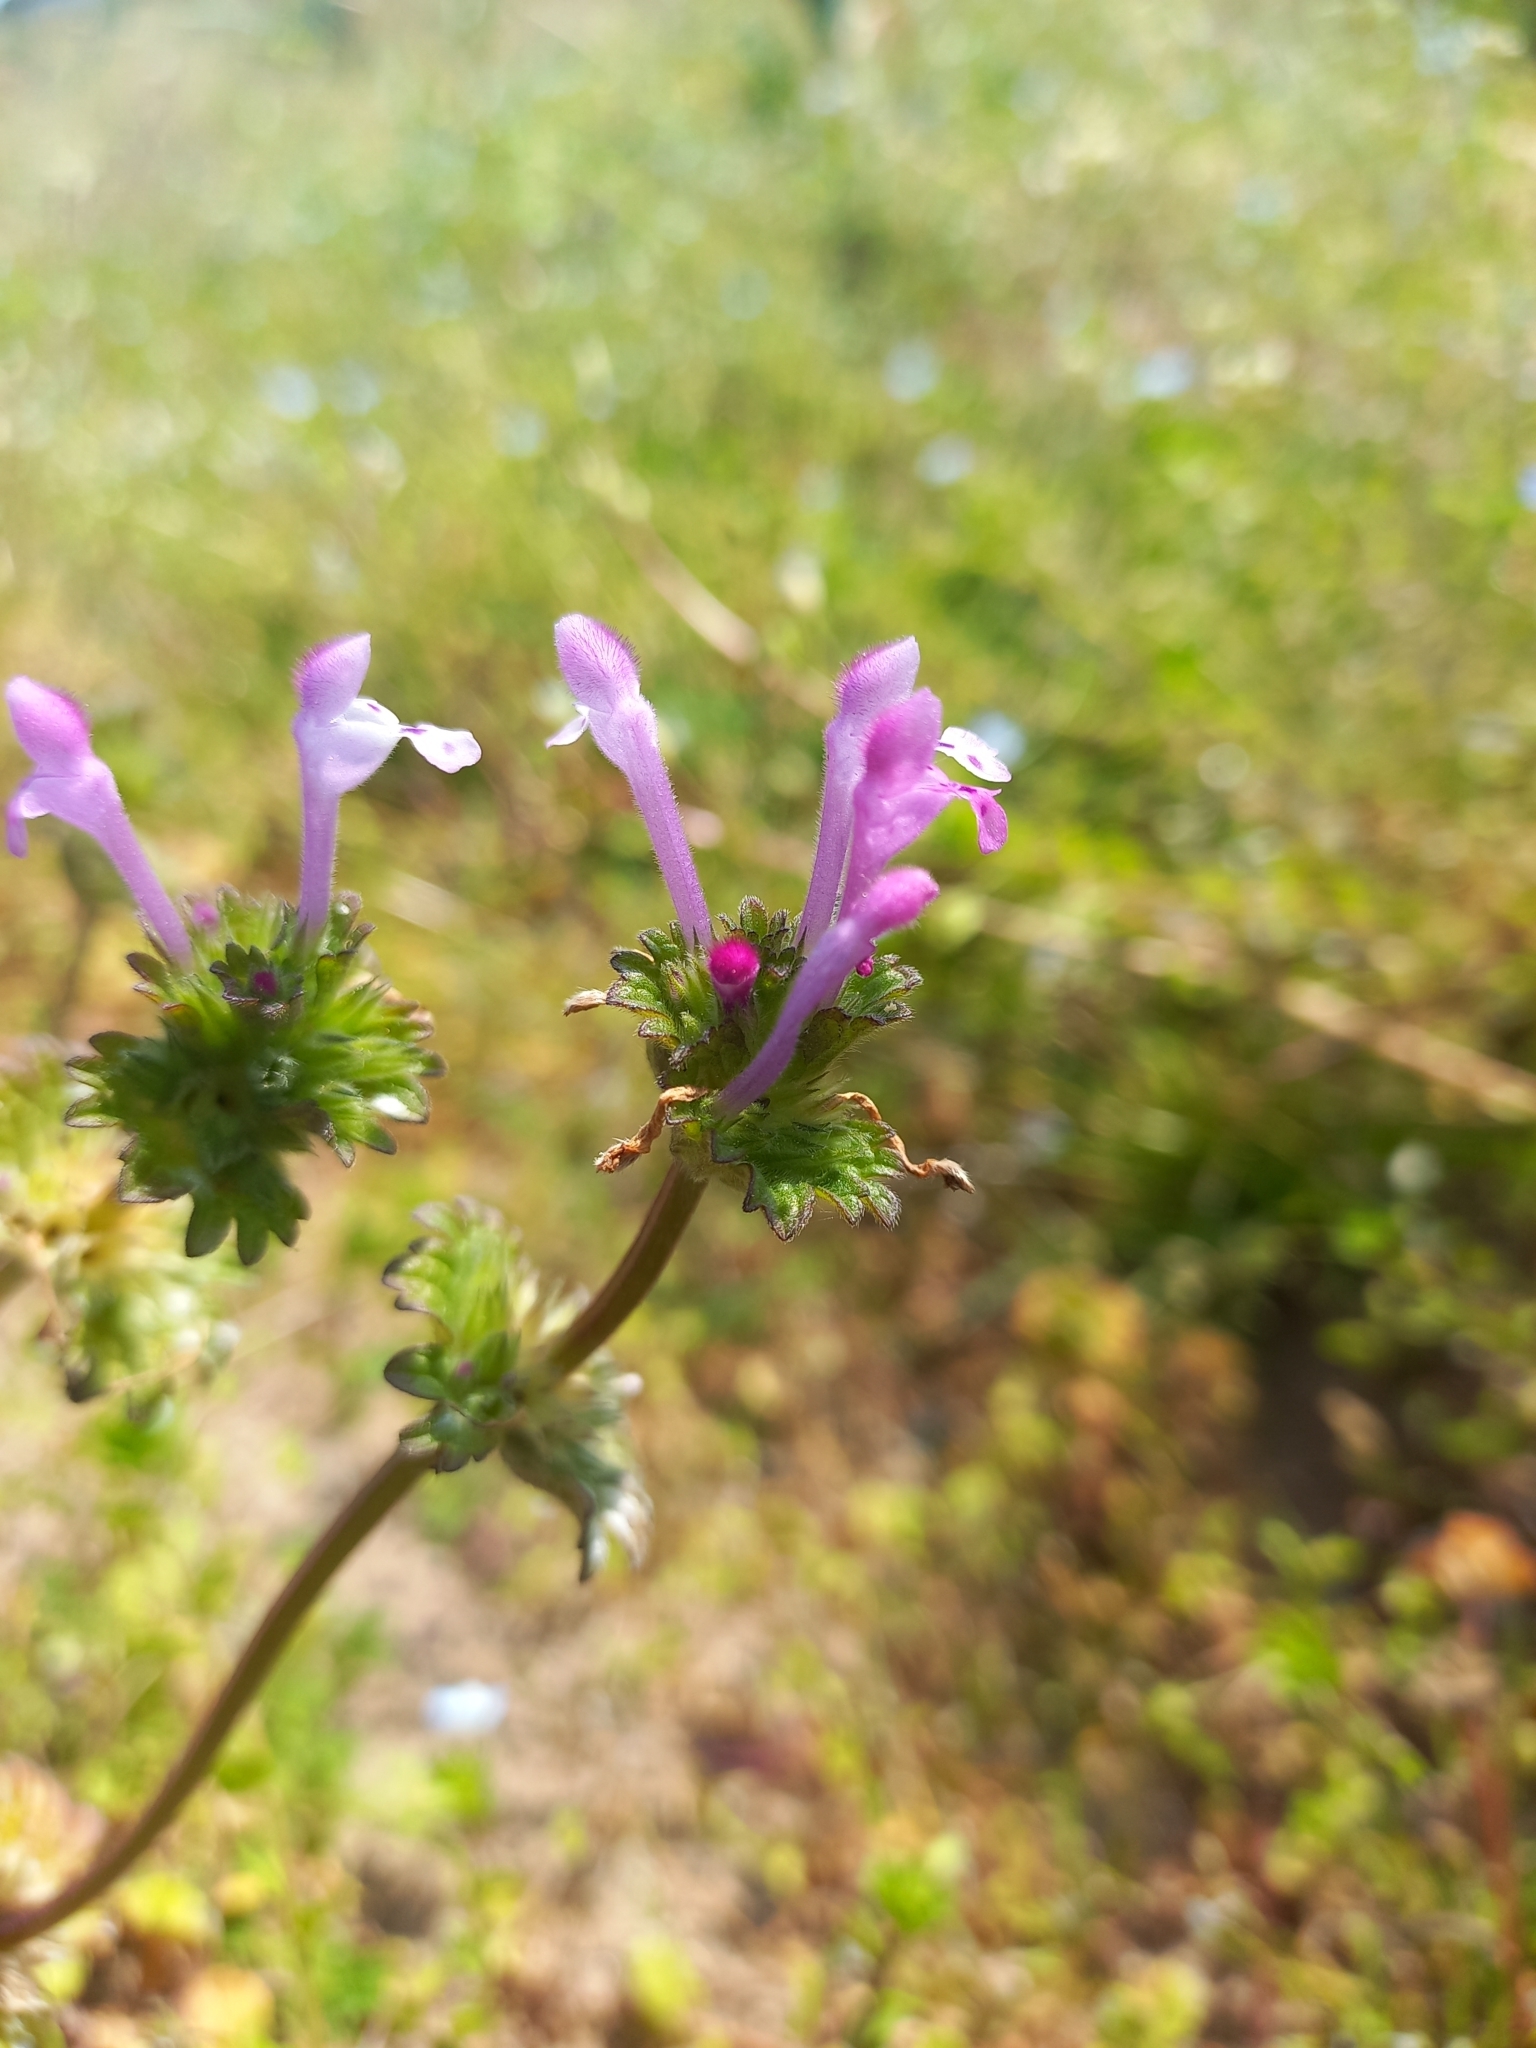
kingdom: Plantae
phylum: Tracheophyta
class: Magnoliopsida
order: Lamiales
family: Lamiaceae
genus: Lamium
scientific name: Lamium amplexicaule
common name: Henbit dead-nettle
